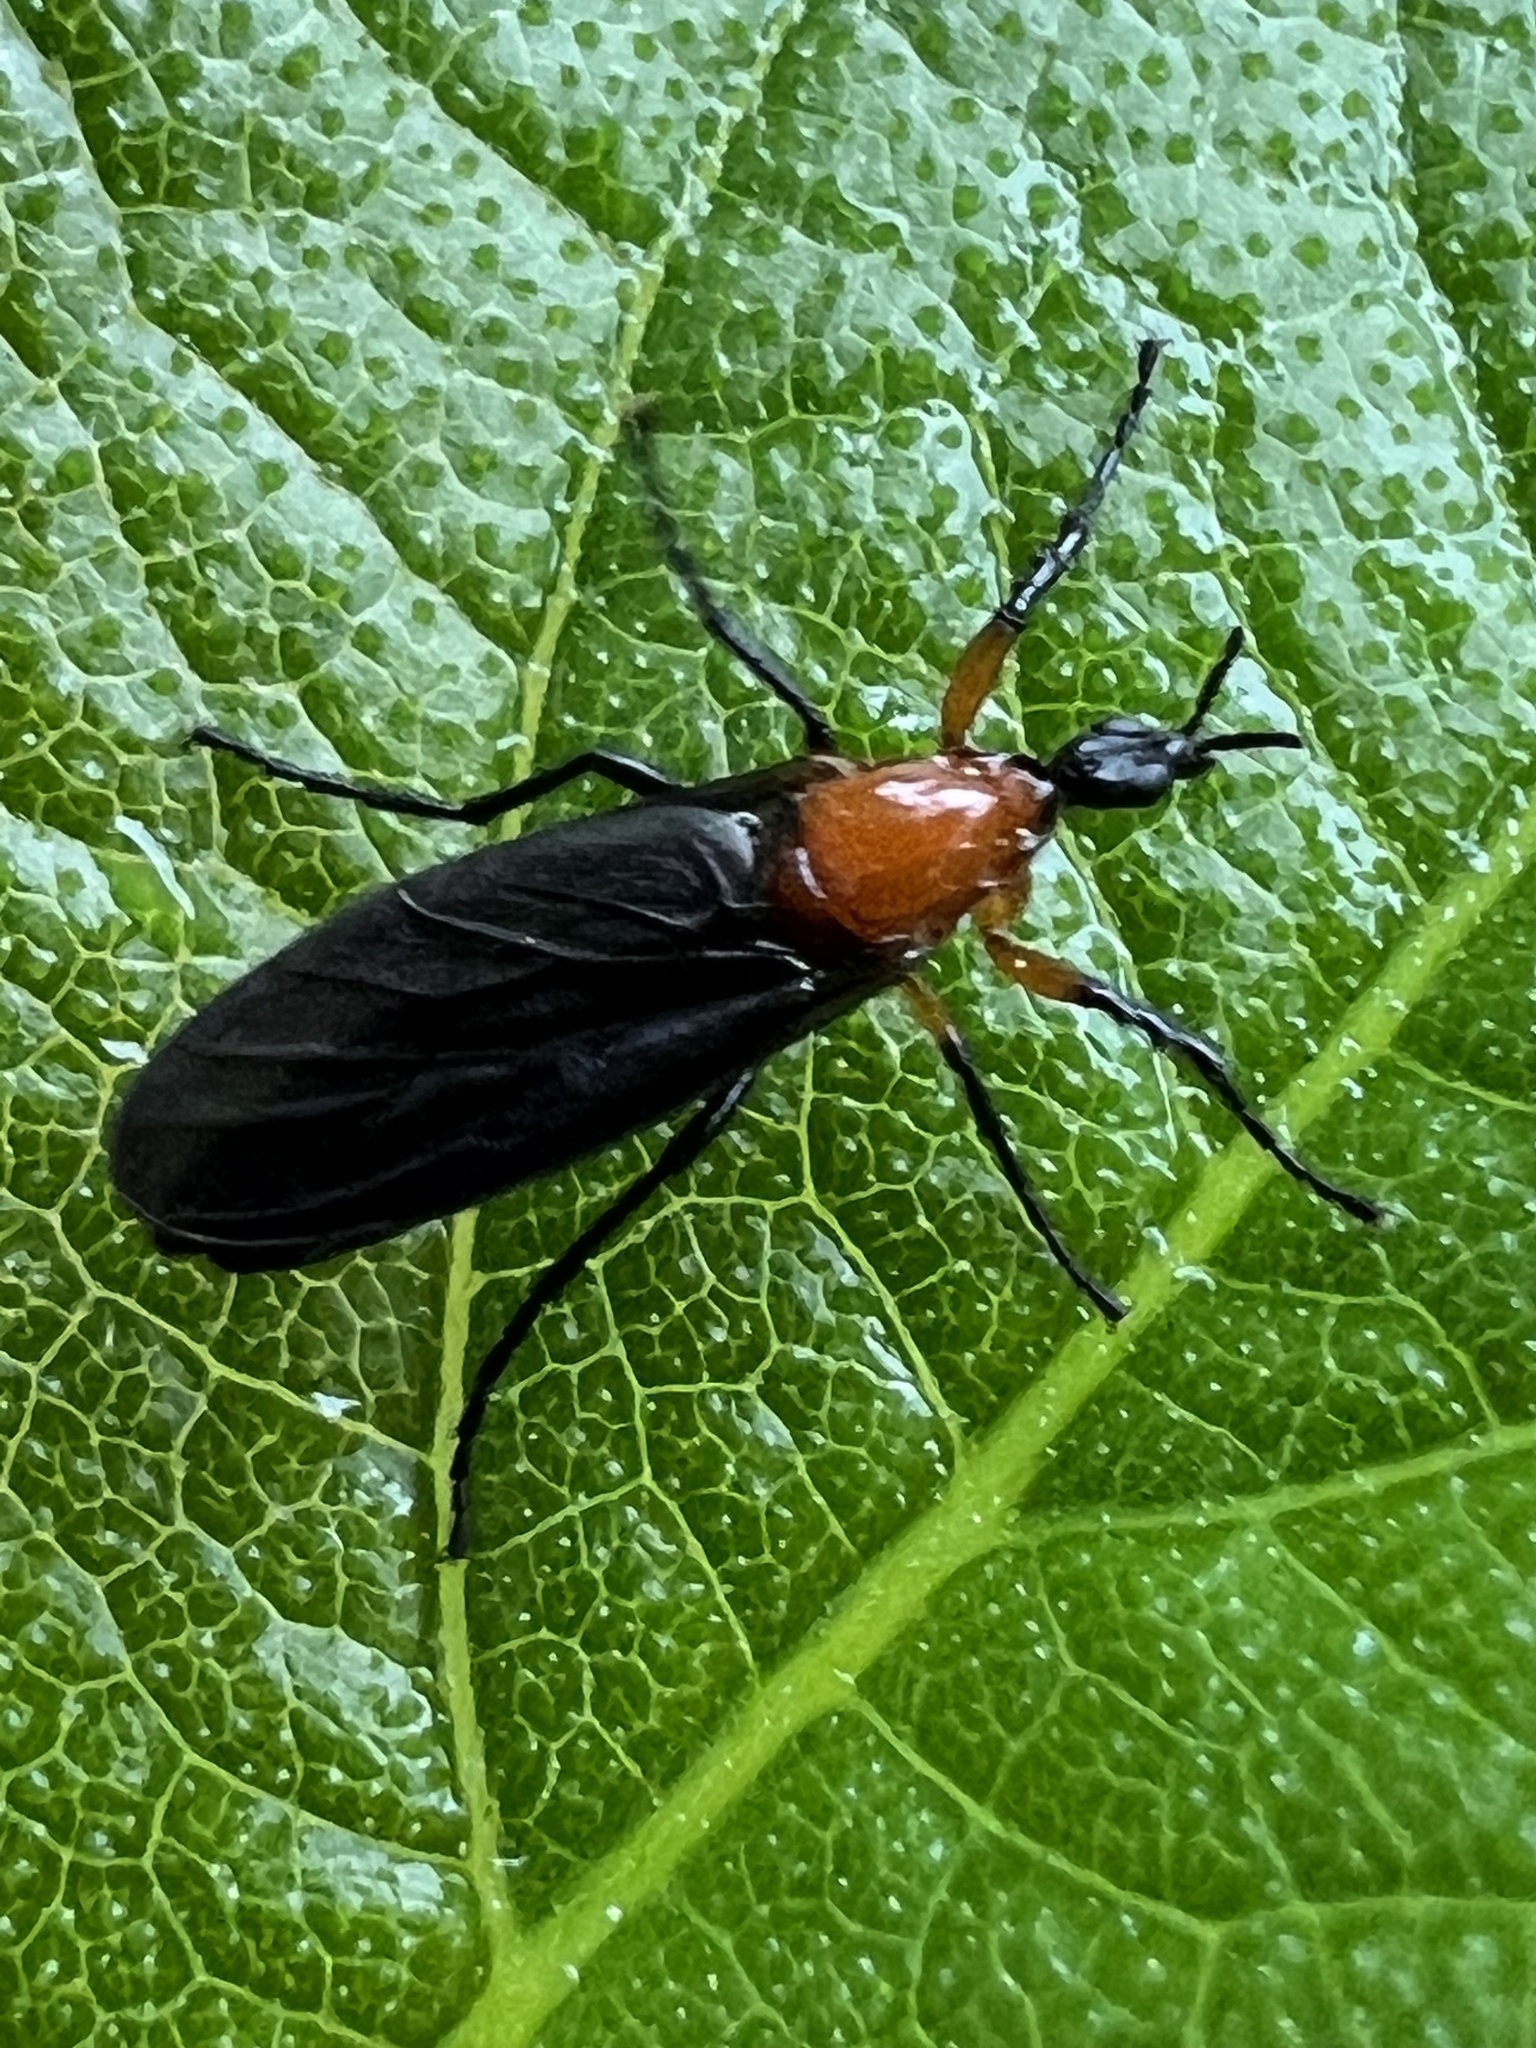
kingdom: Animalia
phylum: Arthropoda
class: Insecta
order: Diptera
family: Bibionidae
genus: Dilophus
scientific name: Dilophus spinipes
